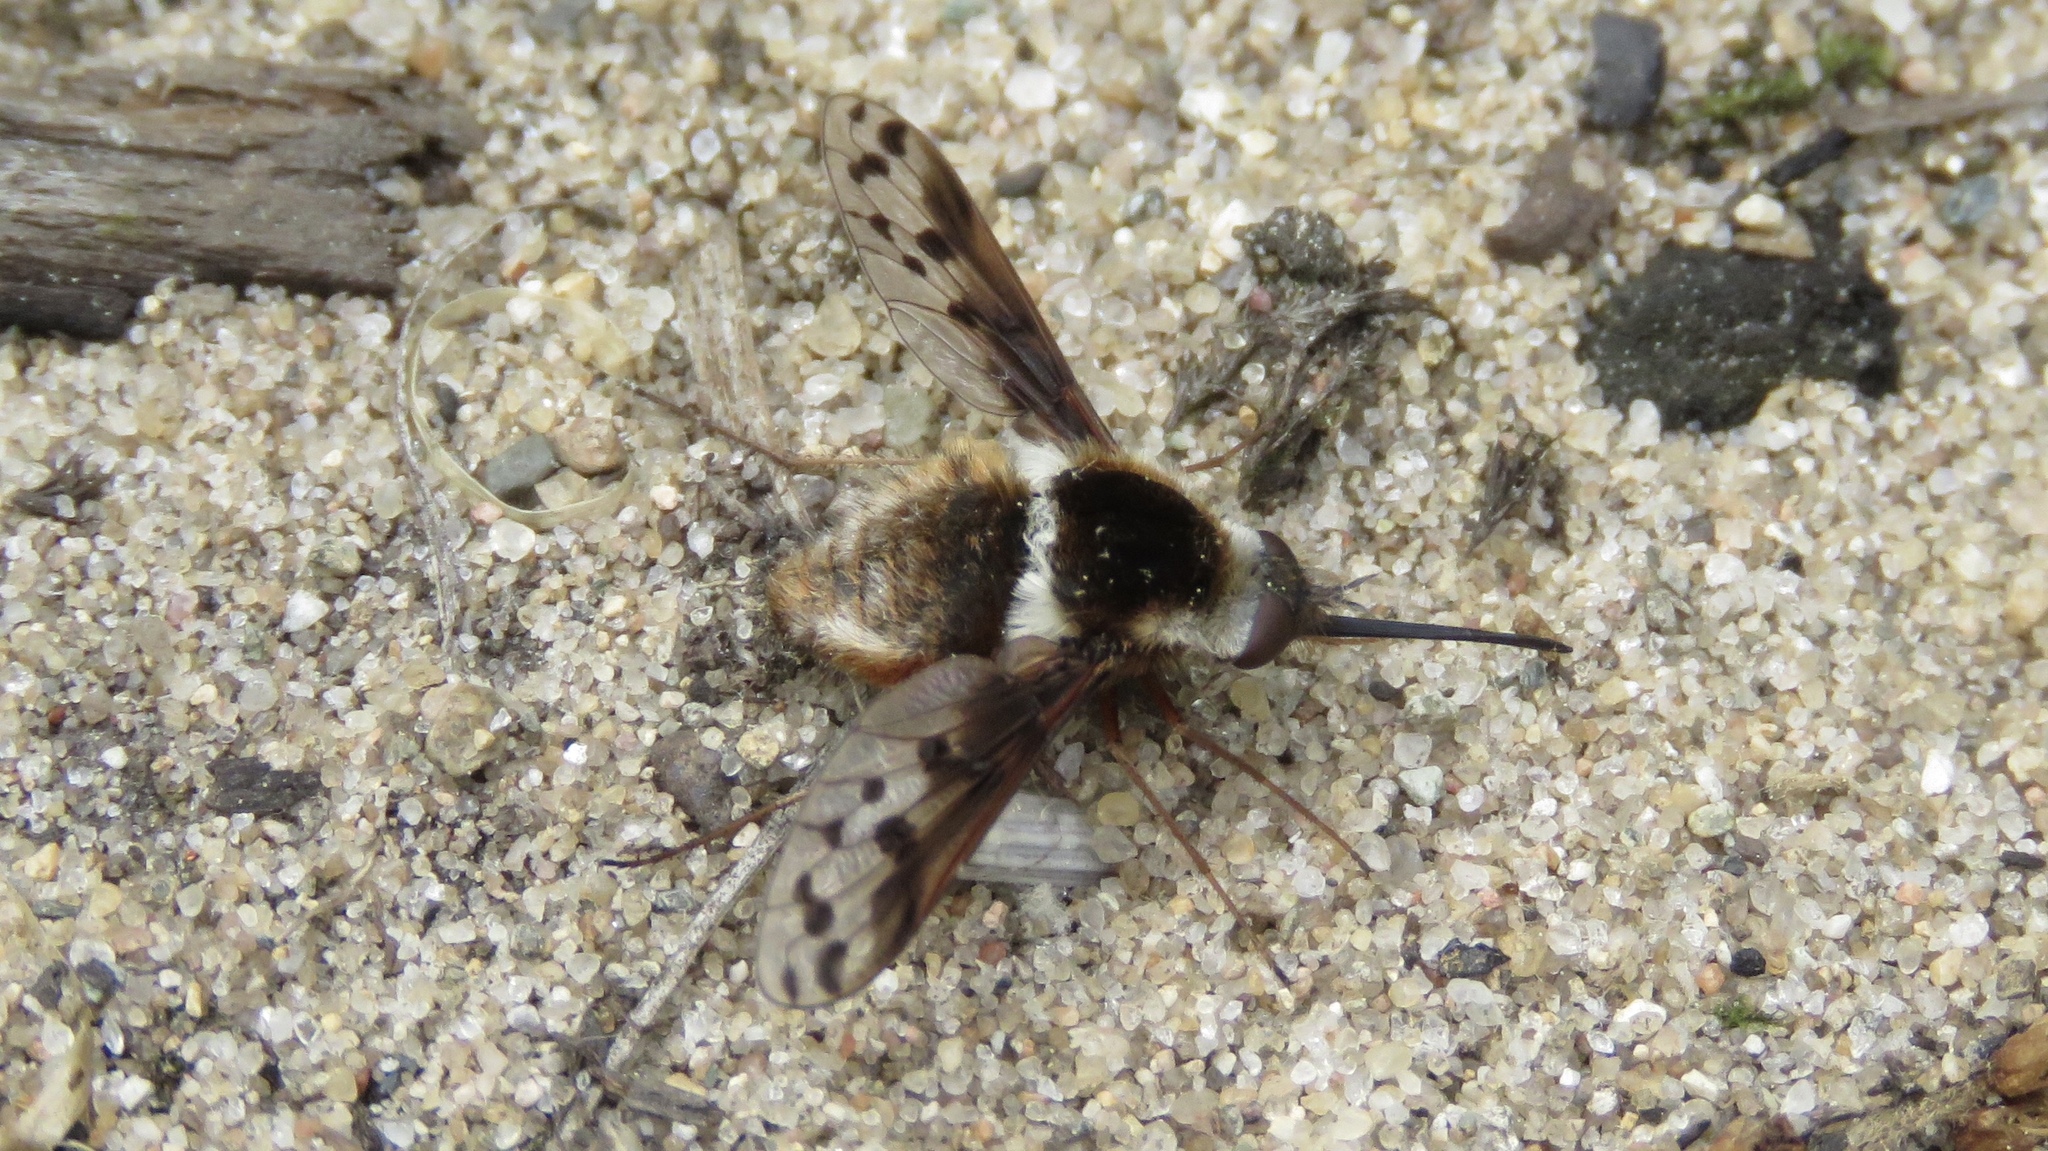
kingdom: Animalia
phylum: Arthropoda
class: Insecta
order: Diptera
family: Bombyliidae
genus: Bombylius
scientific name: Bombylius pygmaeus
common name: Pygmy bee fly
